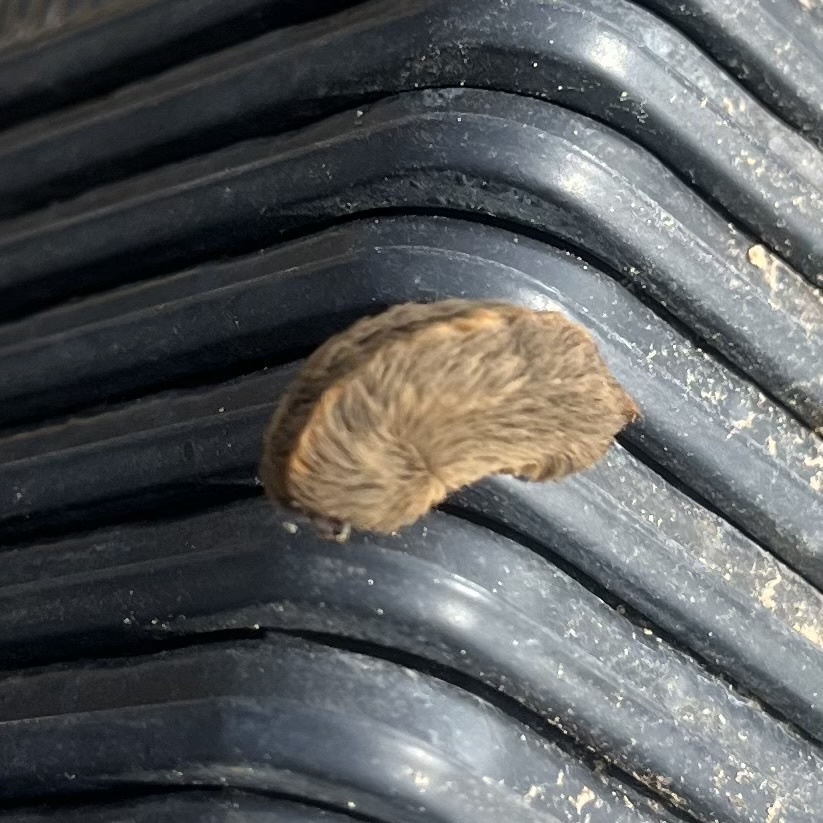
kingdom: Animalia
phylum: Arthropoda
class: Insecta
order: Lepidoptera
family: Megalopygidae
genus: Megalopyge
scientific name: Megalopyge opercularis
